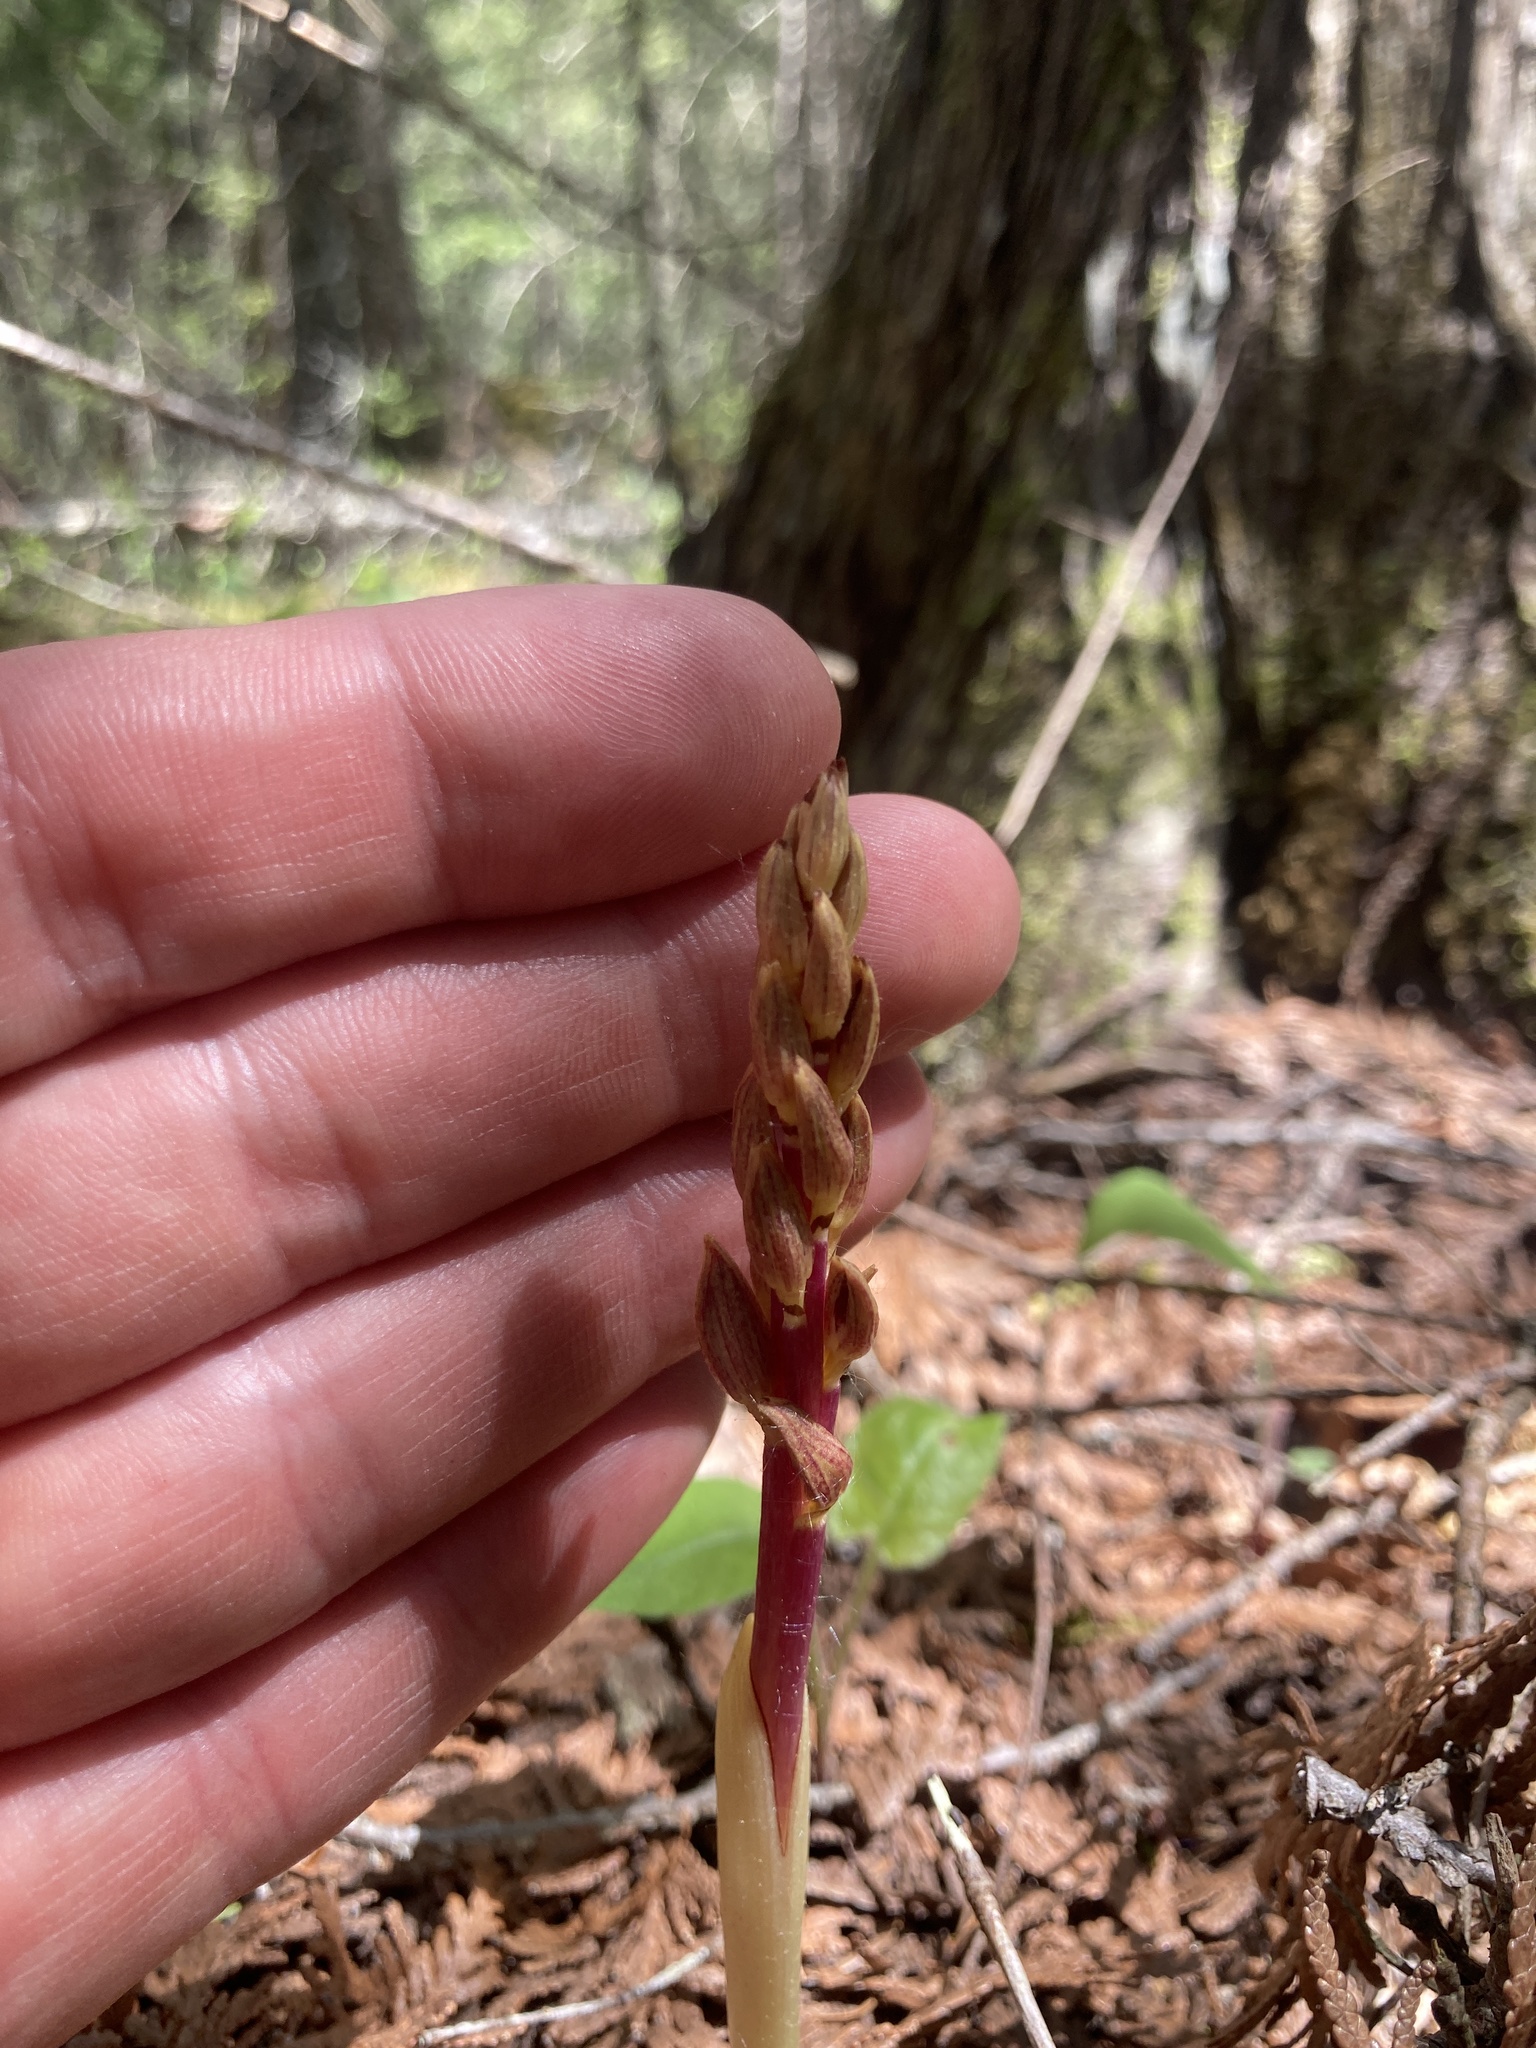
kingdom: Plantae
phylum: Tracheophyta
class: Liliopsida
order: Asparagales
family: Orchidaceae
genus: Corallorhiza
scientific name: Corallorhiza striata
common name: Hooded coralroot
